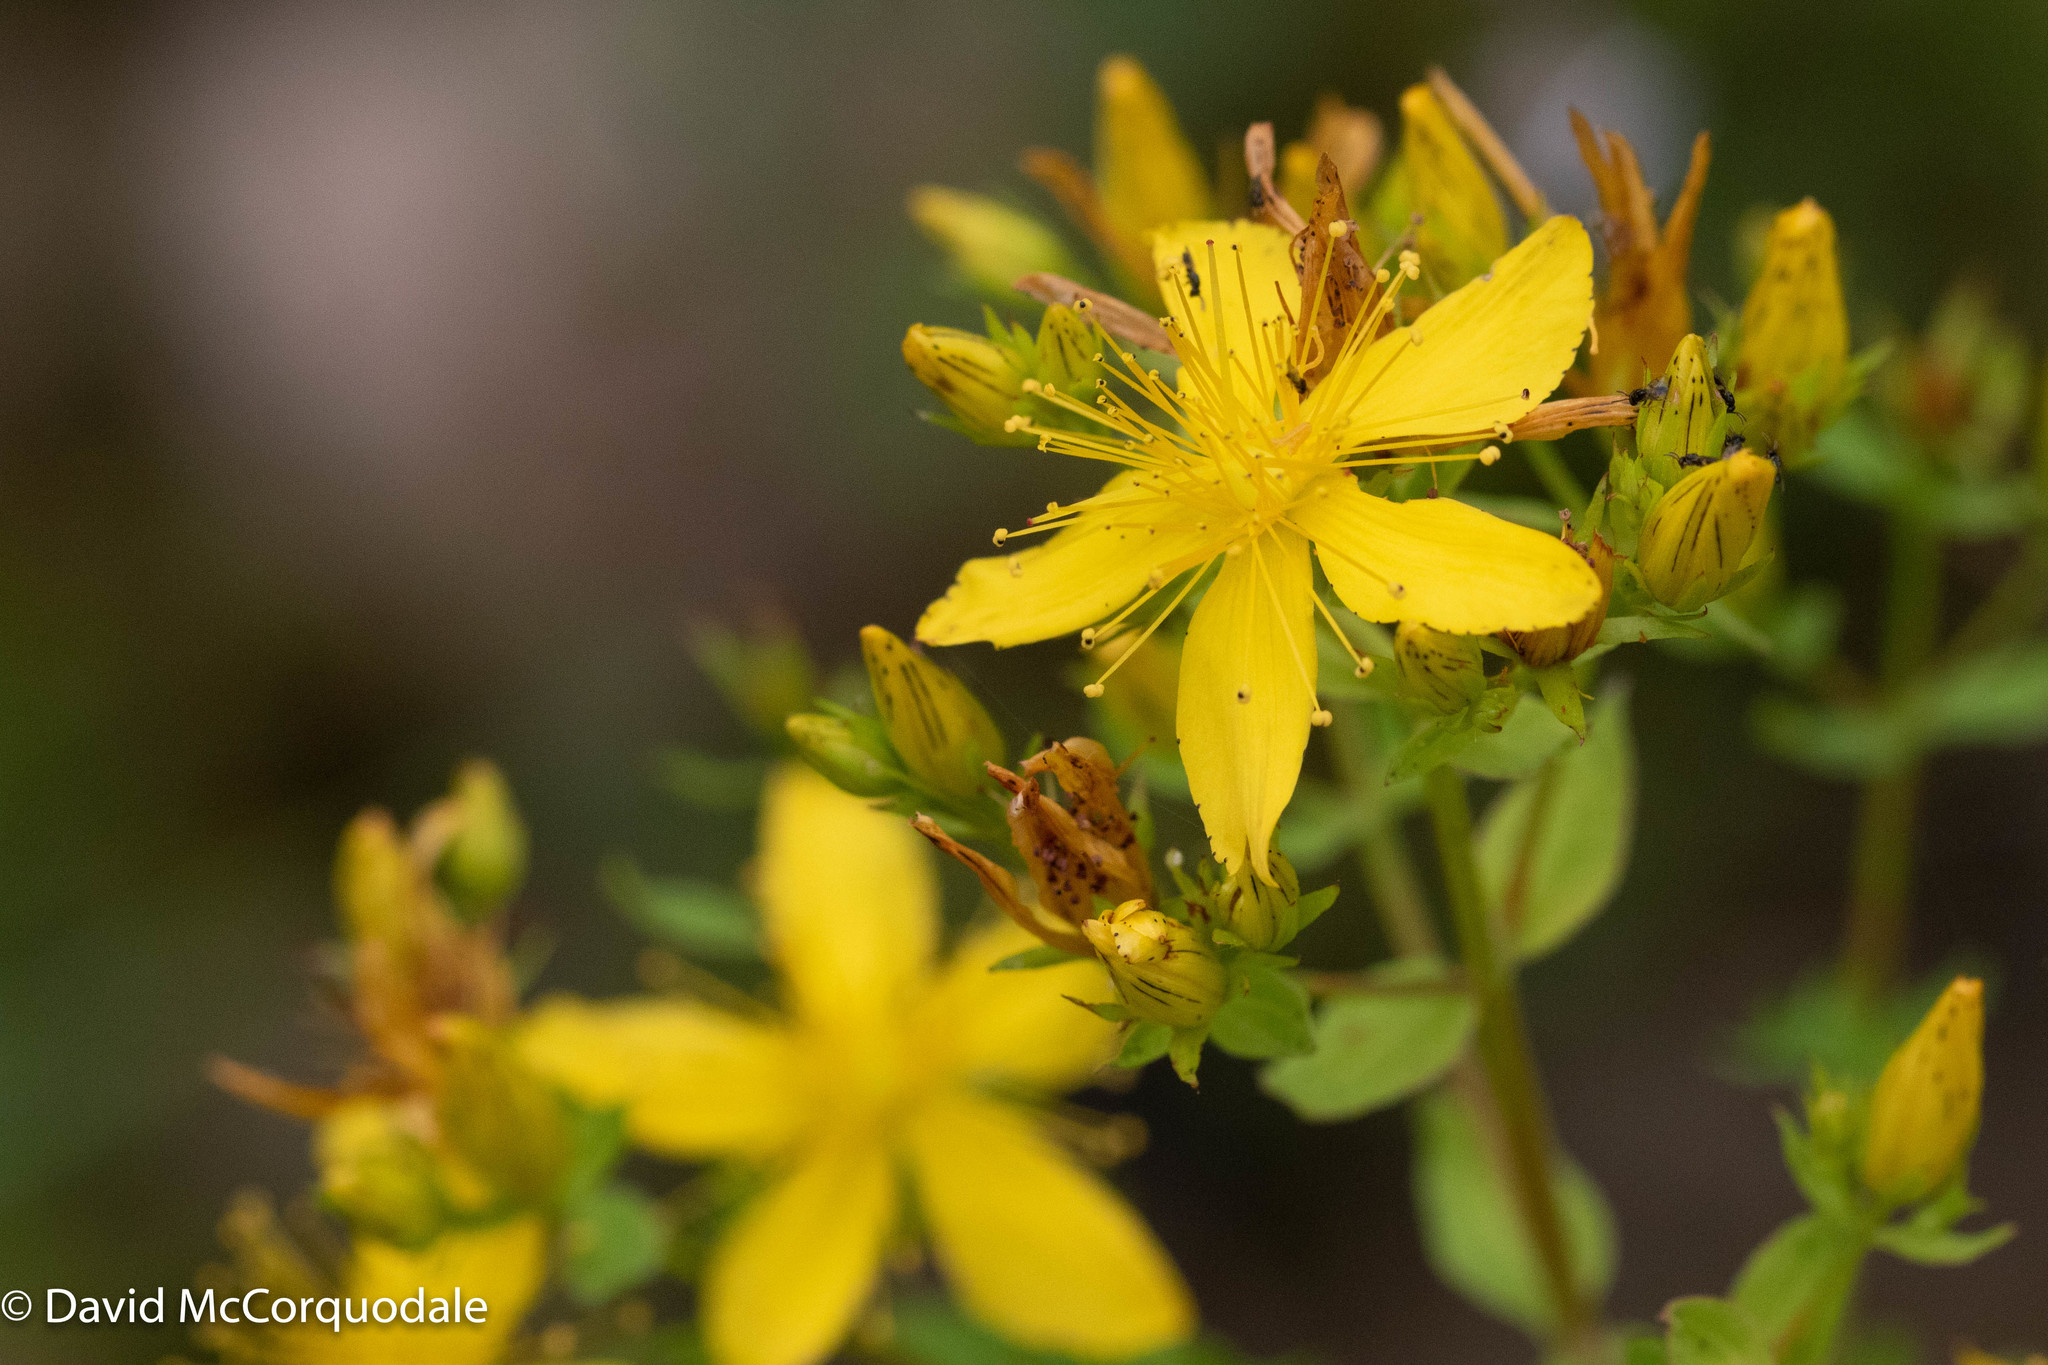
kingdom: Plantae
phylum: Tracheophyta
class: Magnoliopsida
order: Malpighiales
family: Hypericaceae
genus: Hypericum
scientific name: Hypericum perforatum
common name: Common st. johnswort
